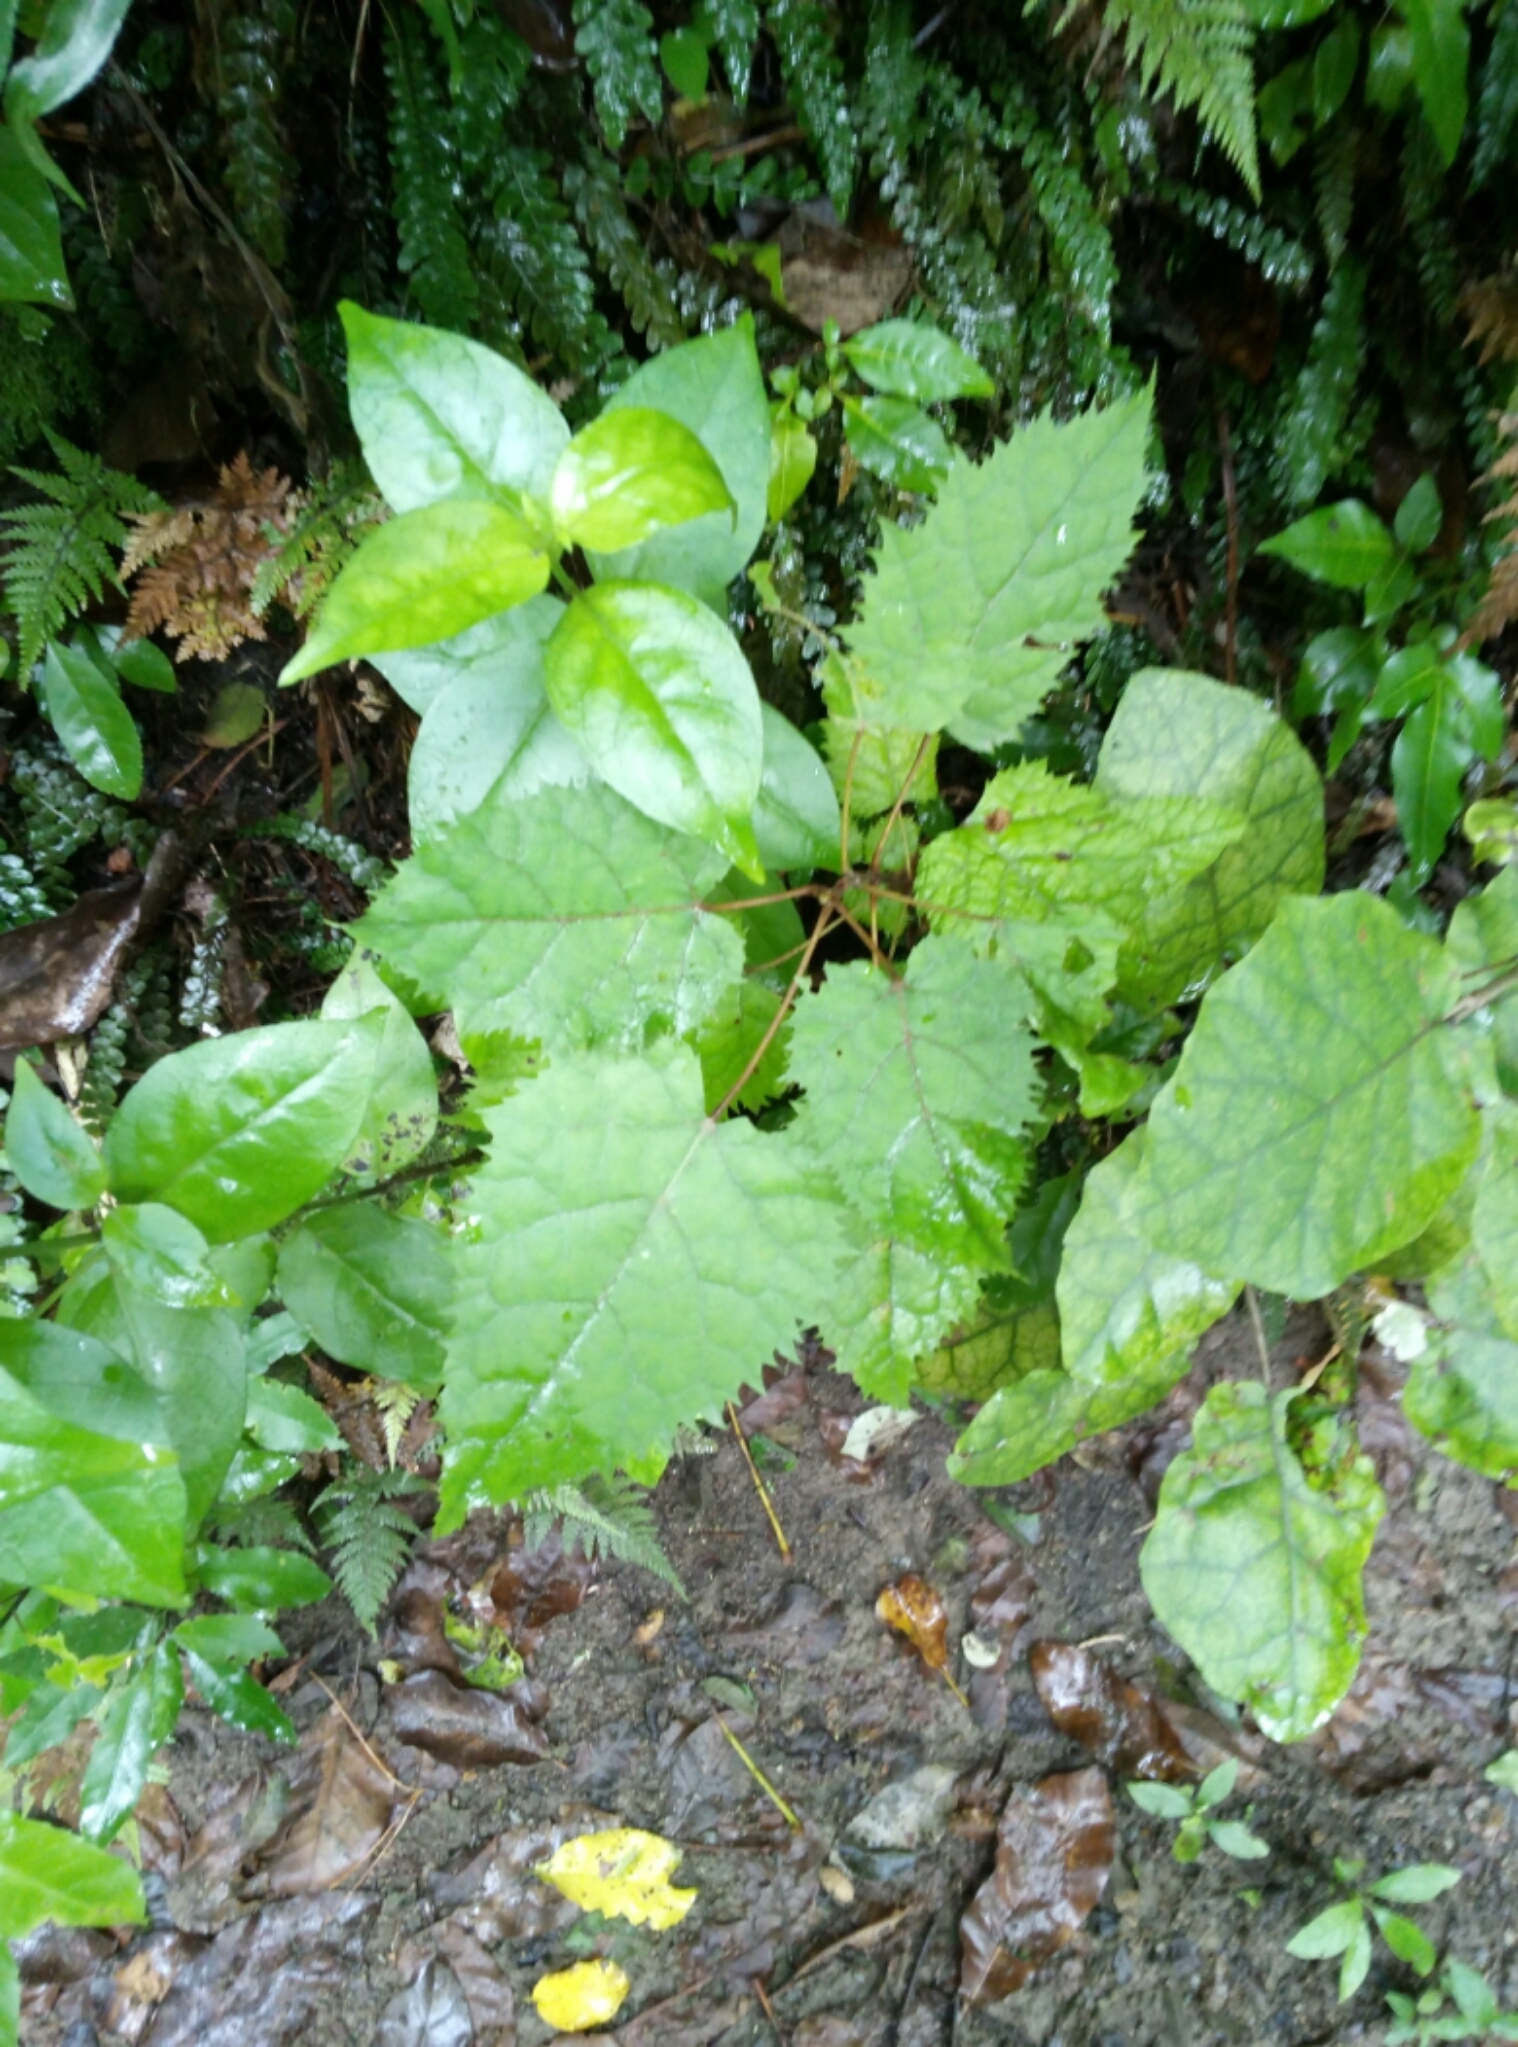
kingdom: Plantae
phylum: Tracheophyta
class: Magnoliopsida
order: Oxalidales
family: Elaeocarpaceae
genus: Aristotelia
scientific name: Aristotelia serrata
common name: New zealand wineberry
